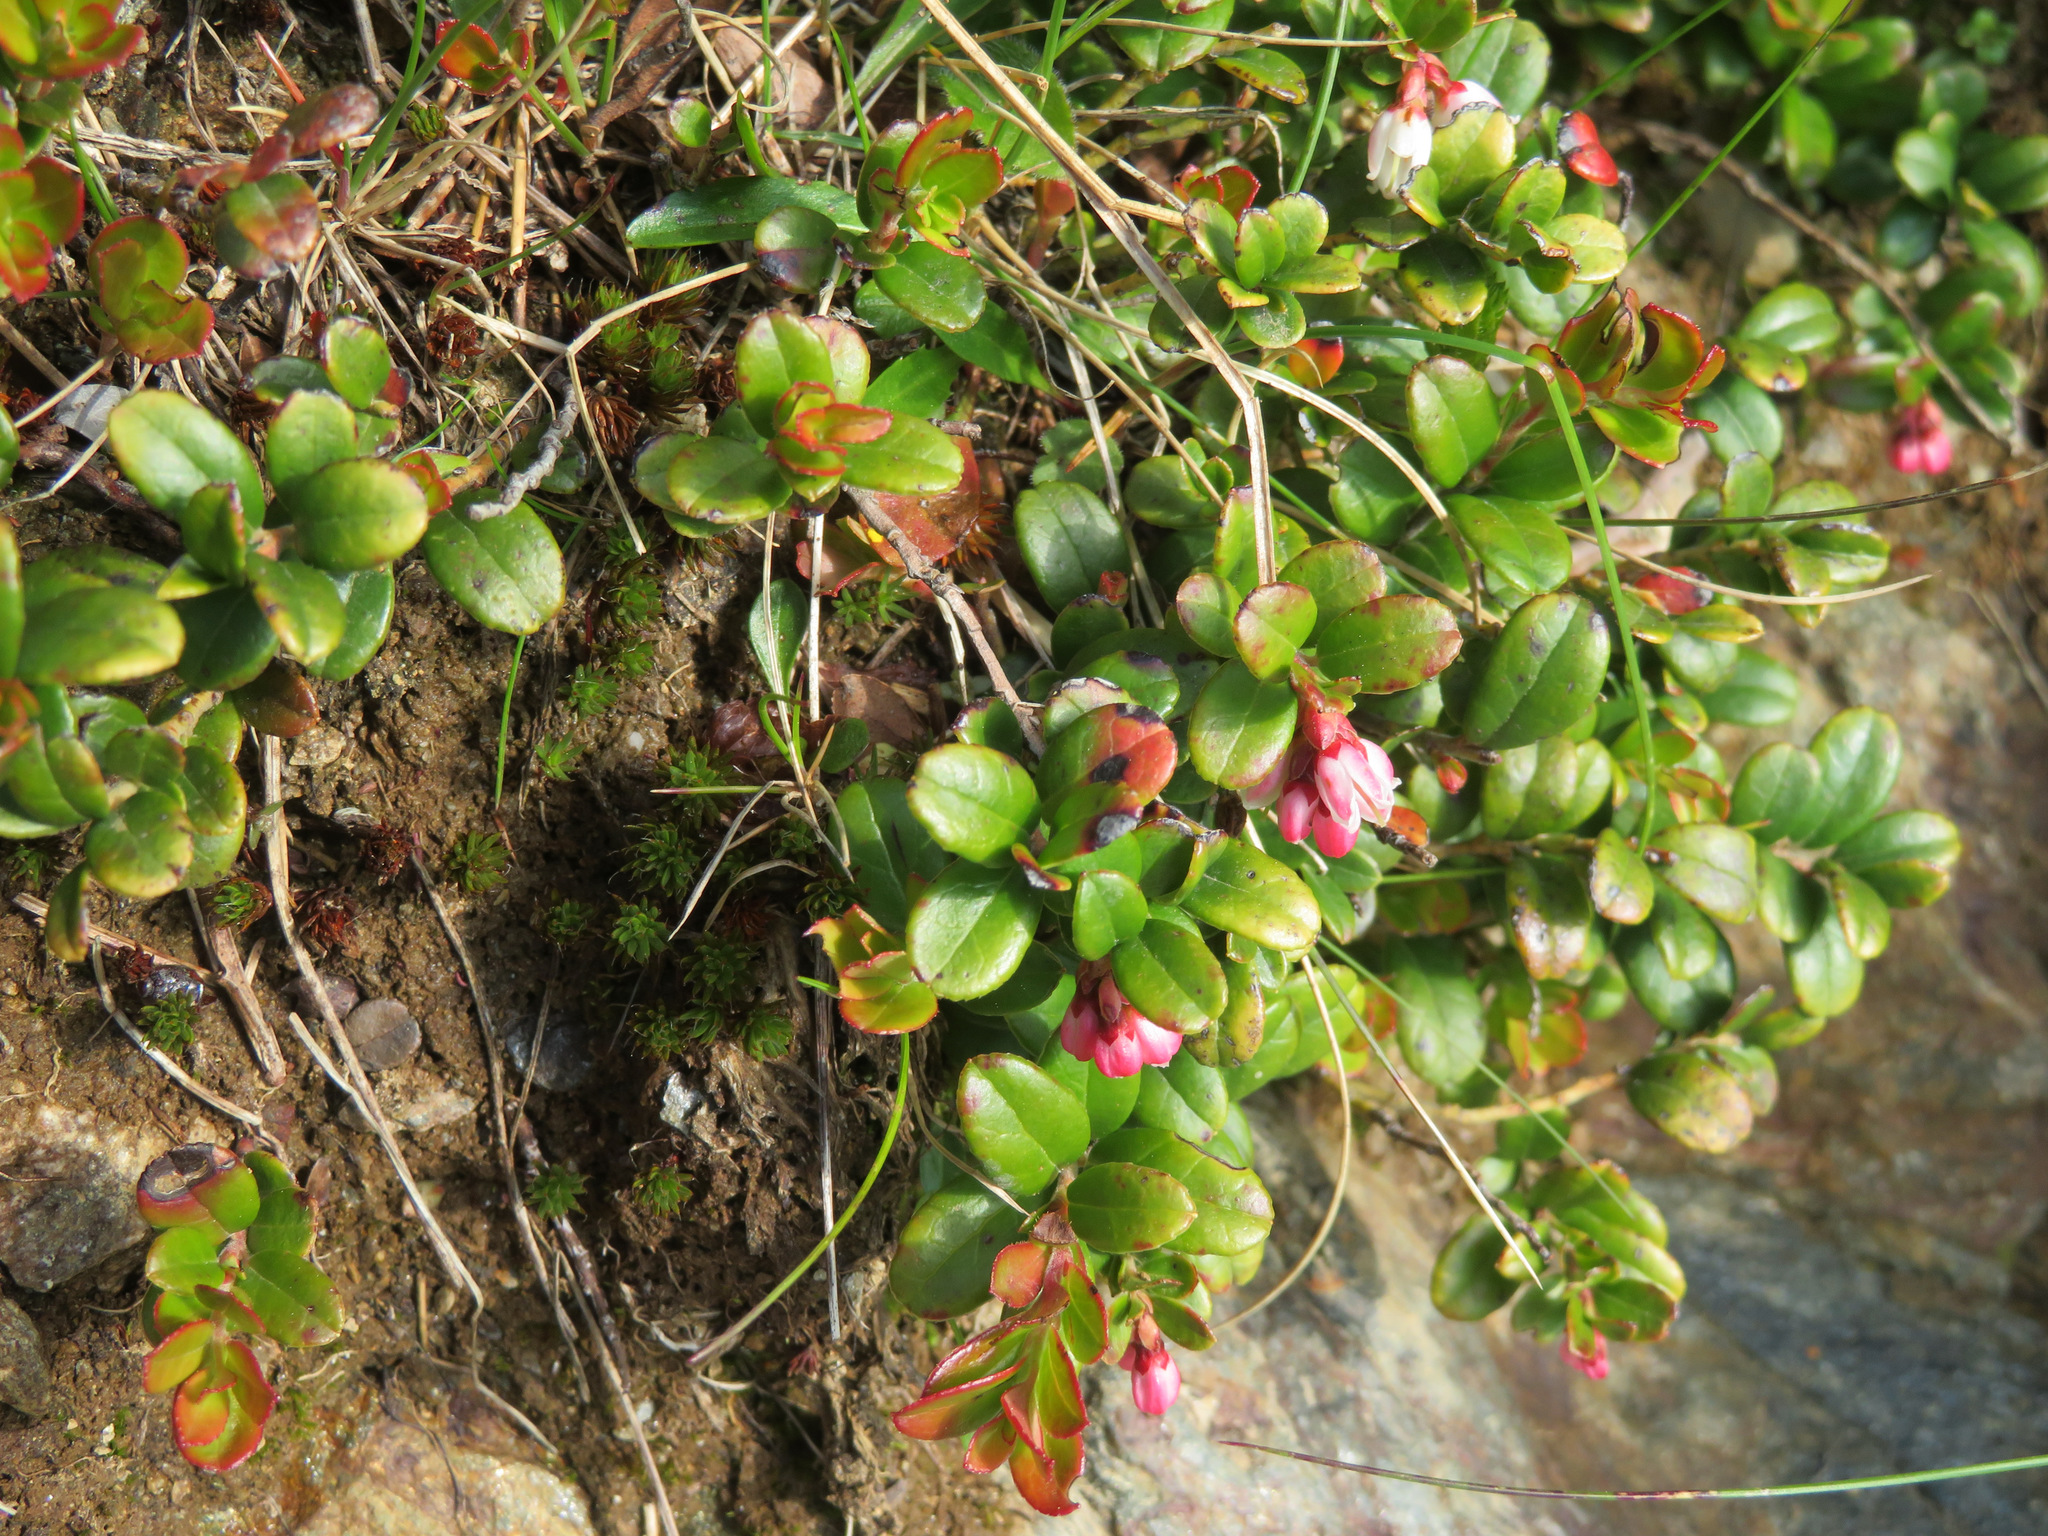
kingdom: Plantae
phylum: Tracheophyta
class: Magnoliopsida
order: Ericales
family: Ericaceae
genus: Vaccinium
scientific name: Vaccinium vitis-idaea
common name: Cowberry
